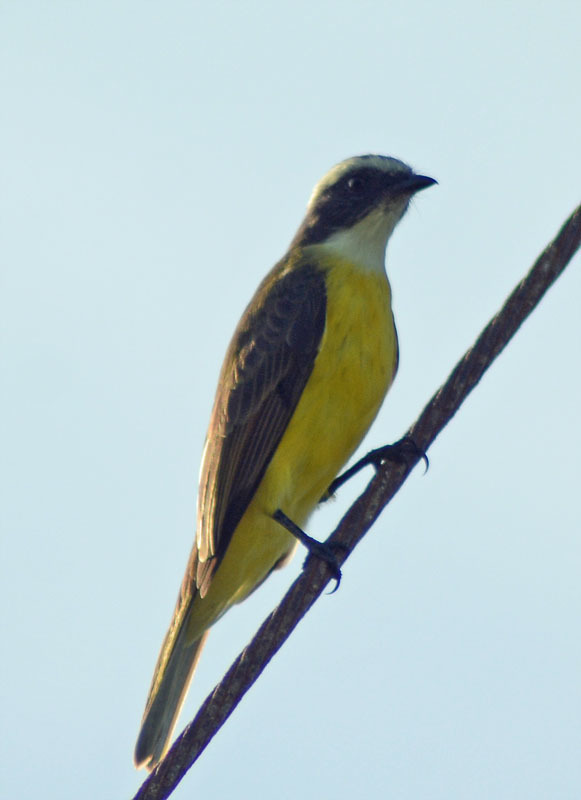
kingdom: Animalia
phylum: Chordata
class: Aves
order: Passeriformes
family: Tyrannidae
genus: Myiozetetes
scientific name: Myiozetetes similis
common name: Social flycatcher
